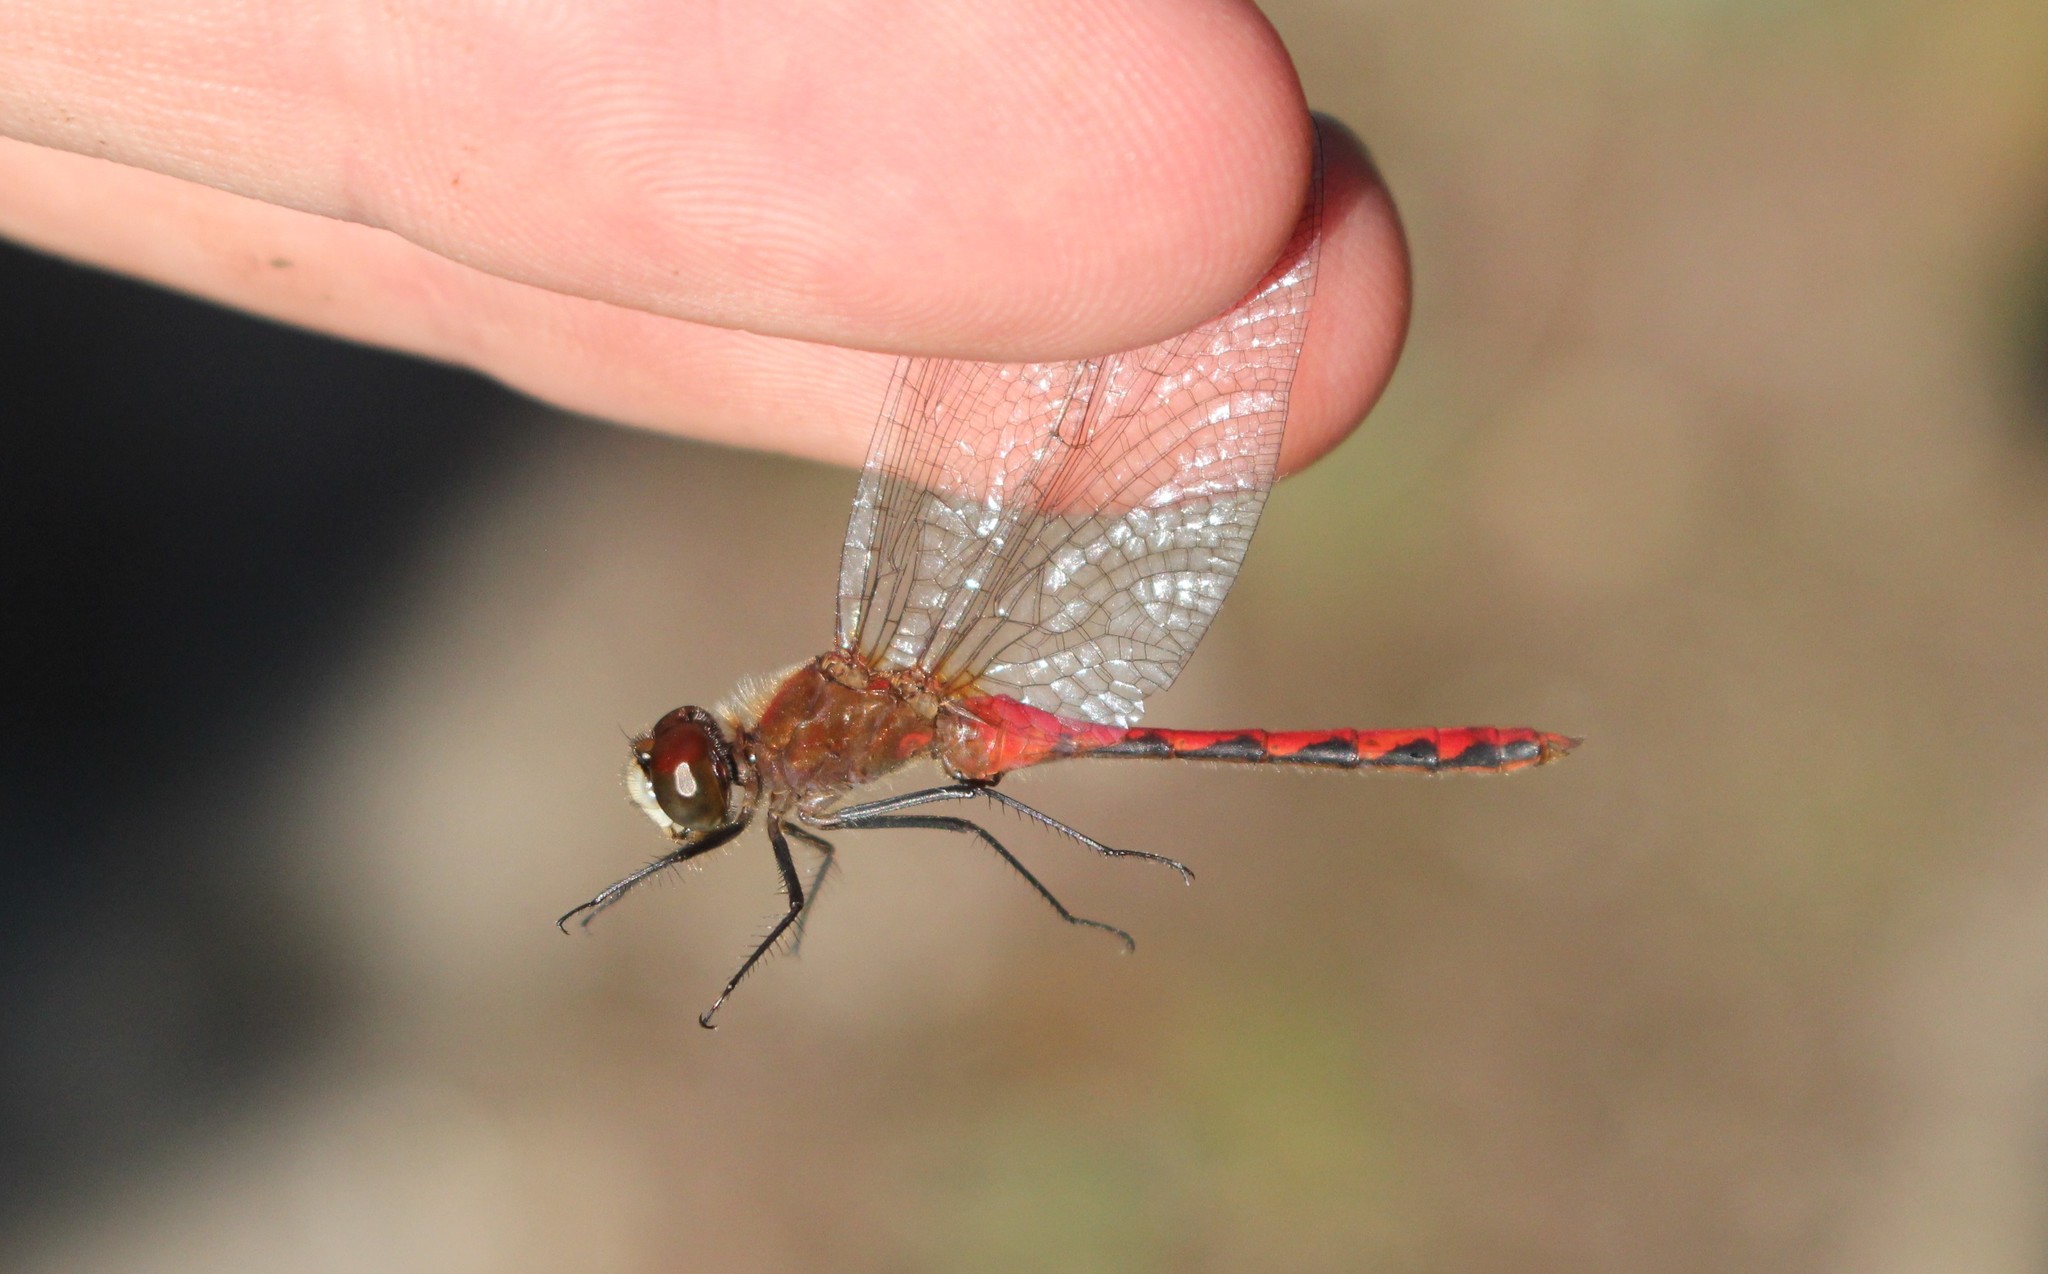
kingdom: Animalia
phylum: Arthropoda
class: Insecta
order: Odonata
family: Libellulidae
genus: Sympetrum
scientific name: Sympetrum obtrusum
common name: White-faced meadowhawk
